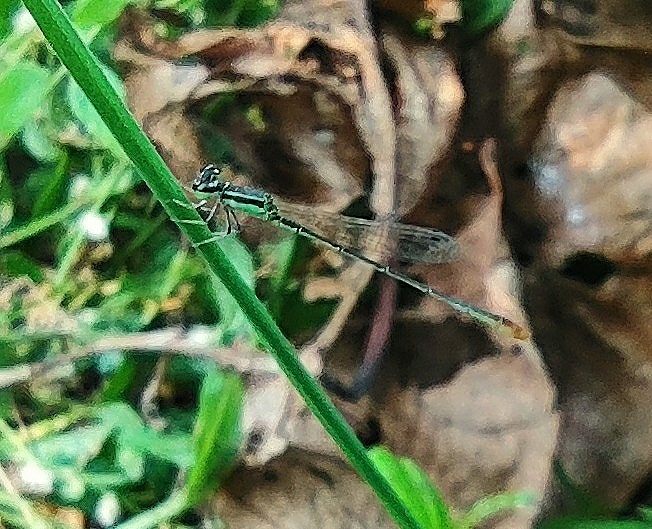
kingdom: Animalia
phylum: Arthropoda
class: Insecta
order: Odonata
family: Coenagrionidae
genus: Agriocnemis
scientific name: Agriocnemis pygmaea
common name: Pygmy wisp
